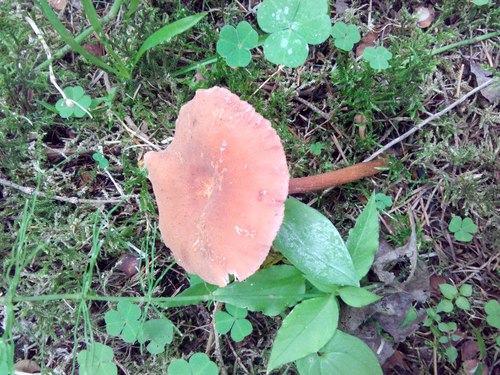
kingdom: Fungi
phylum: Basidiomycota
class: Agaricomycetes
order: Agaricales
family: Hydnangiaceae
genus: Laccaria
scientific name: Laccaria proxima
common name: Scurfy deceiver
